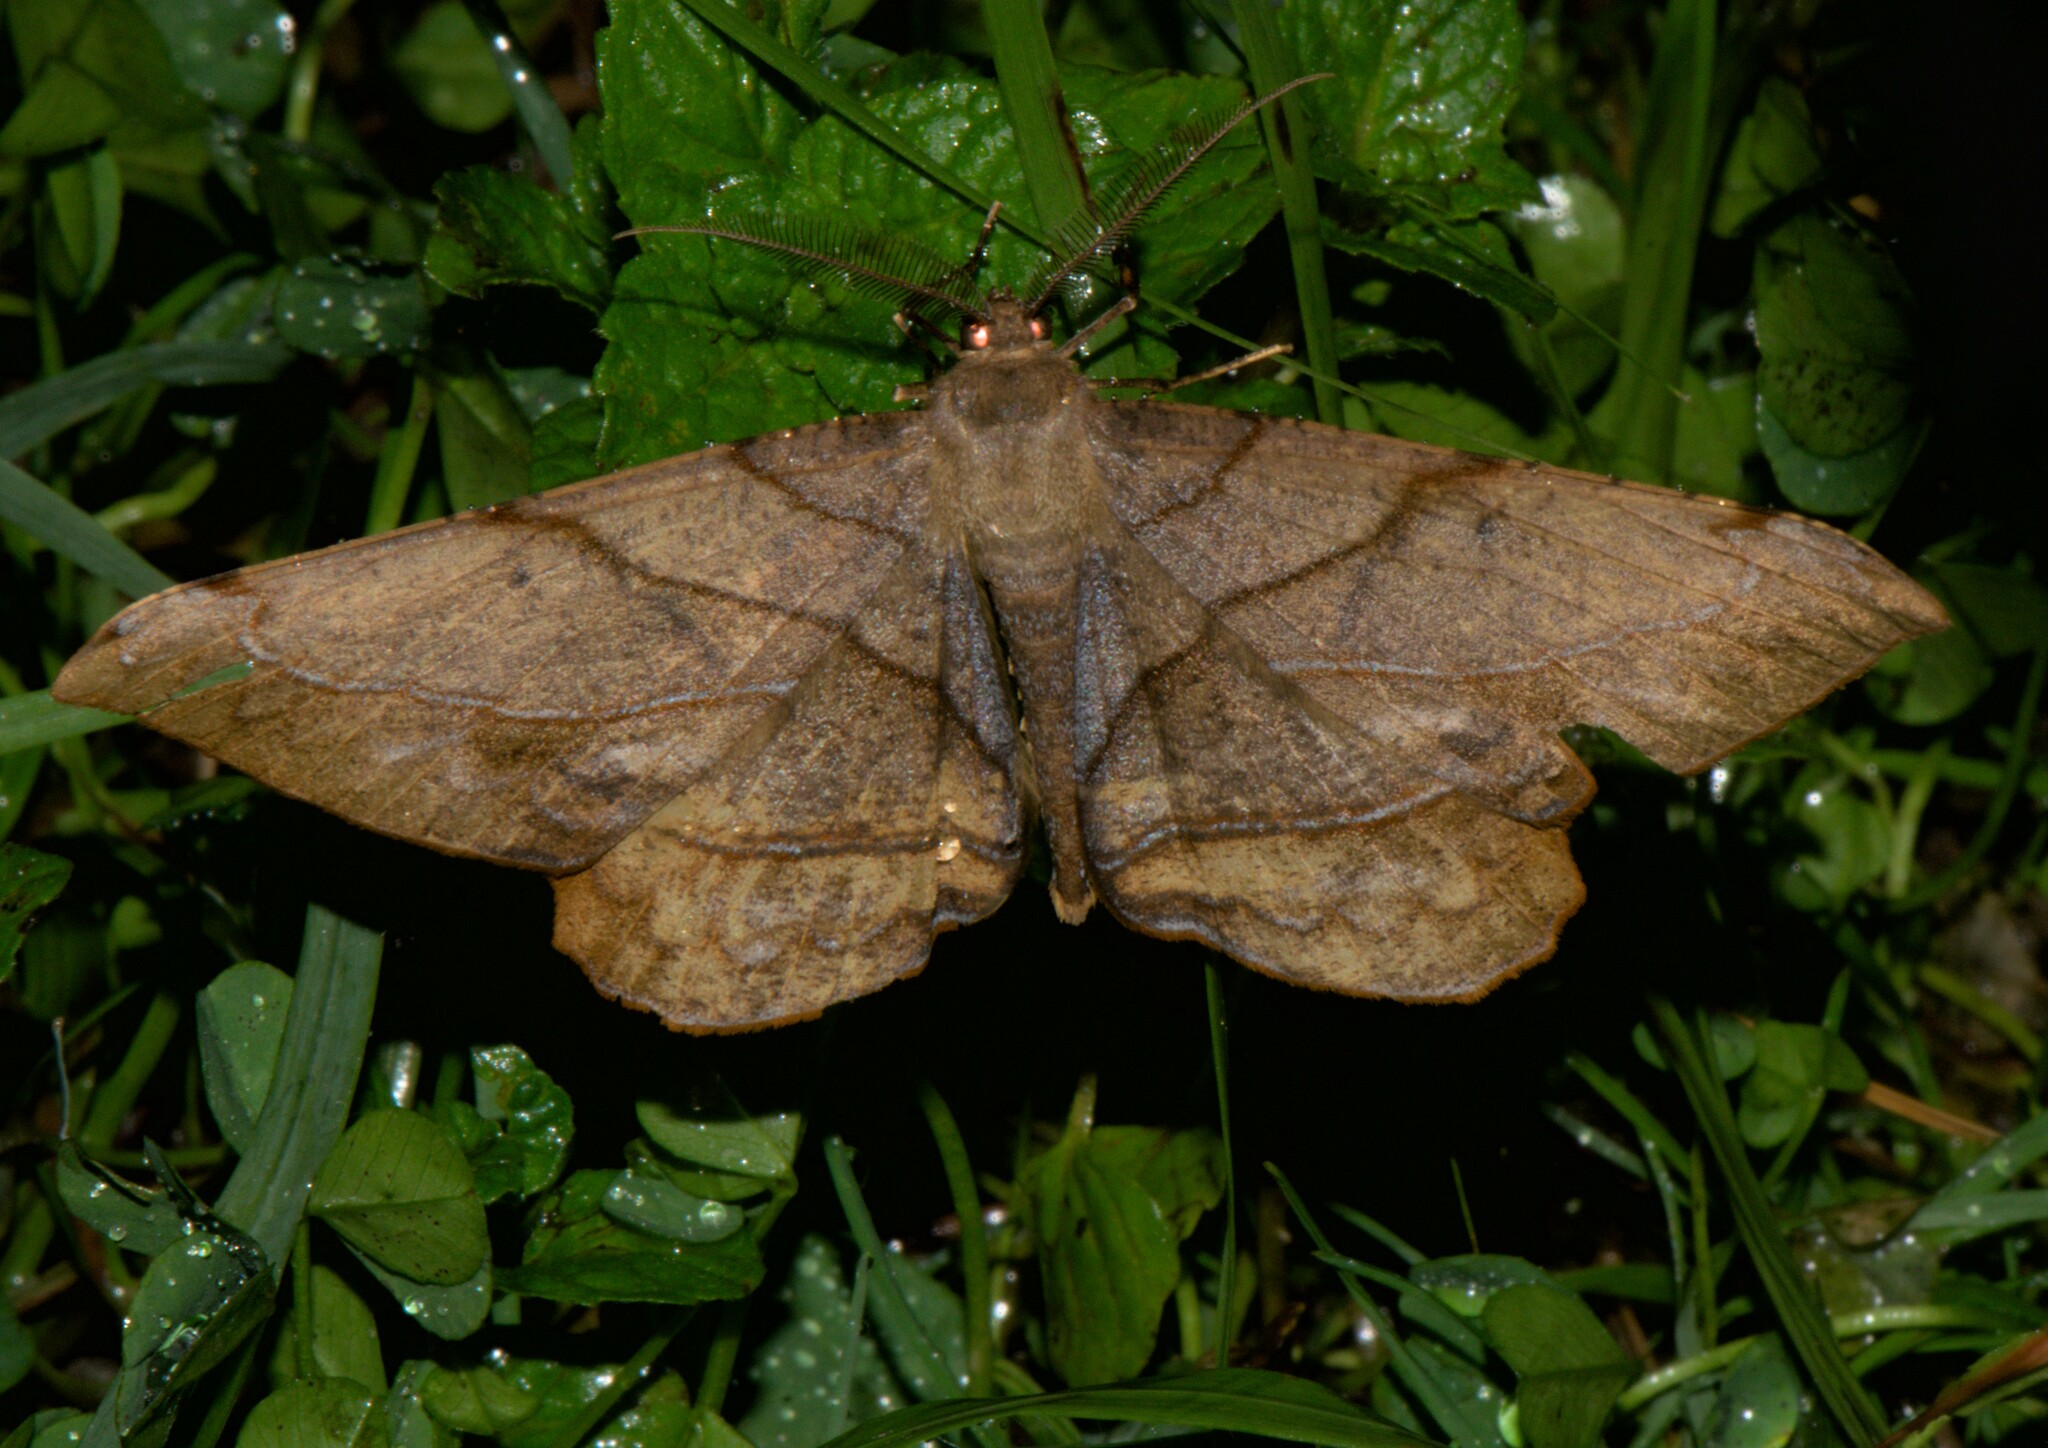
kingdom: Animalia
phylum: Arthropoda
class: Insecta
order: Lepidoptera
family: Geometridae
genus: Dalima
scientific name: Dalima truncataria
